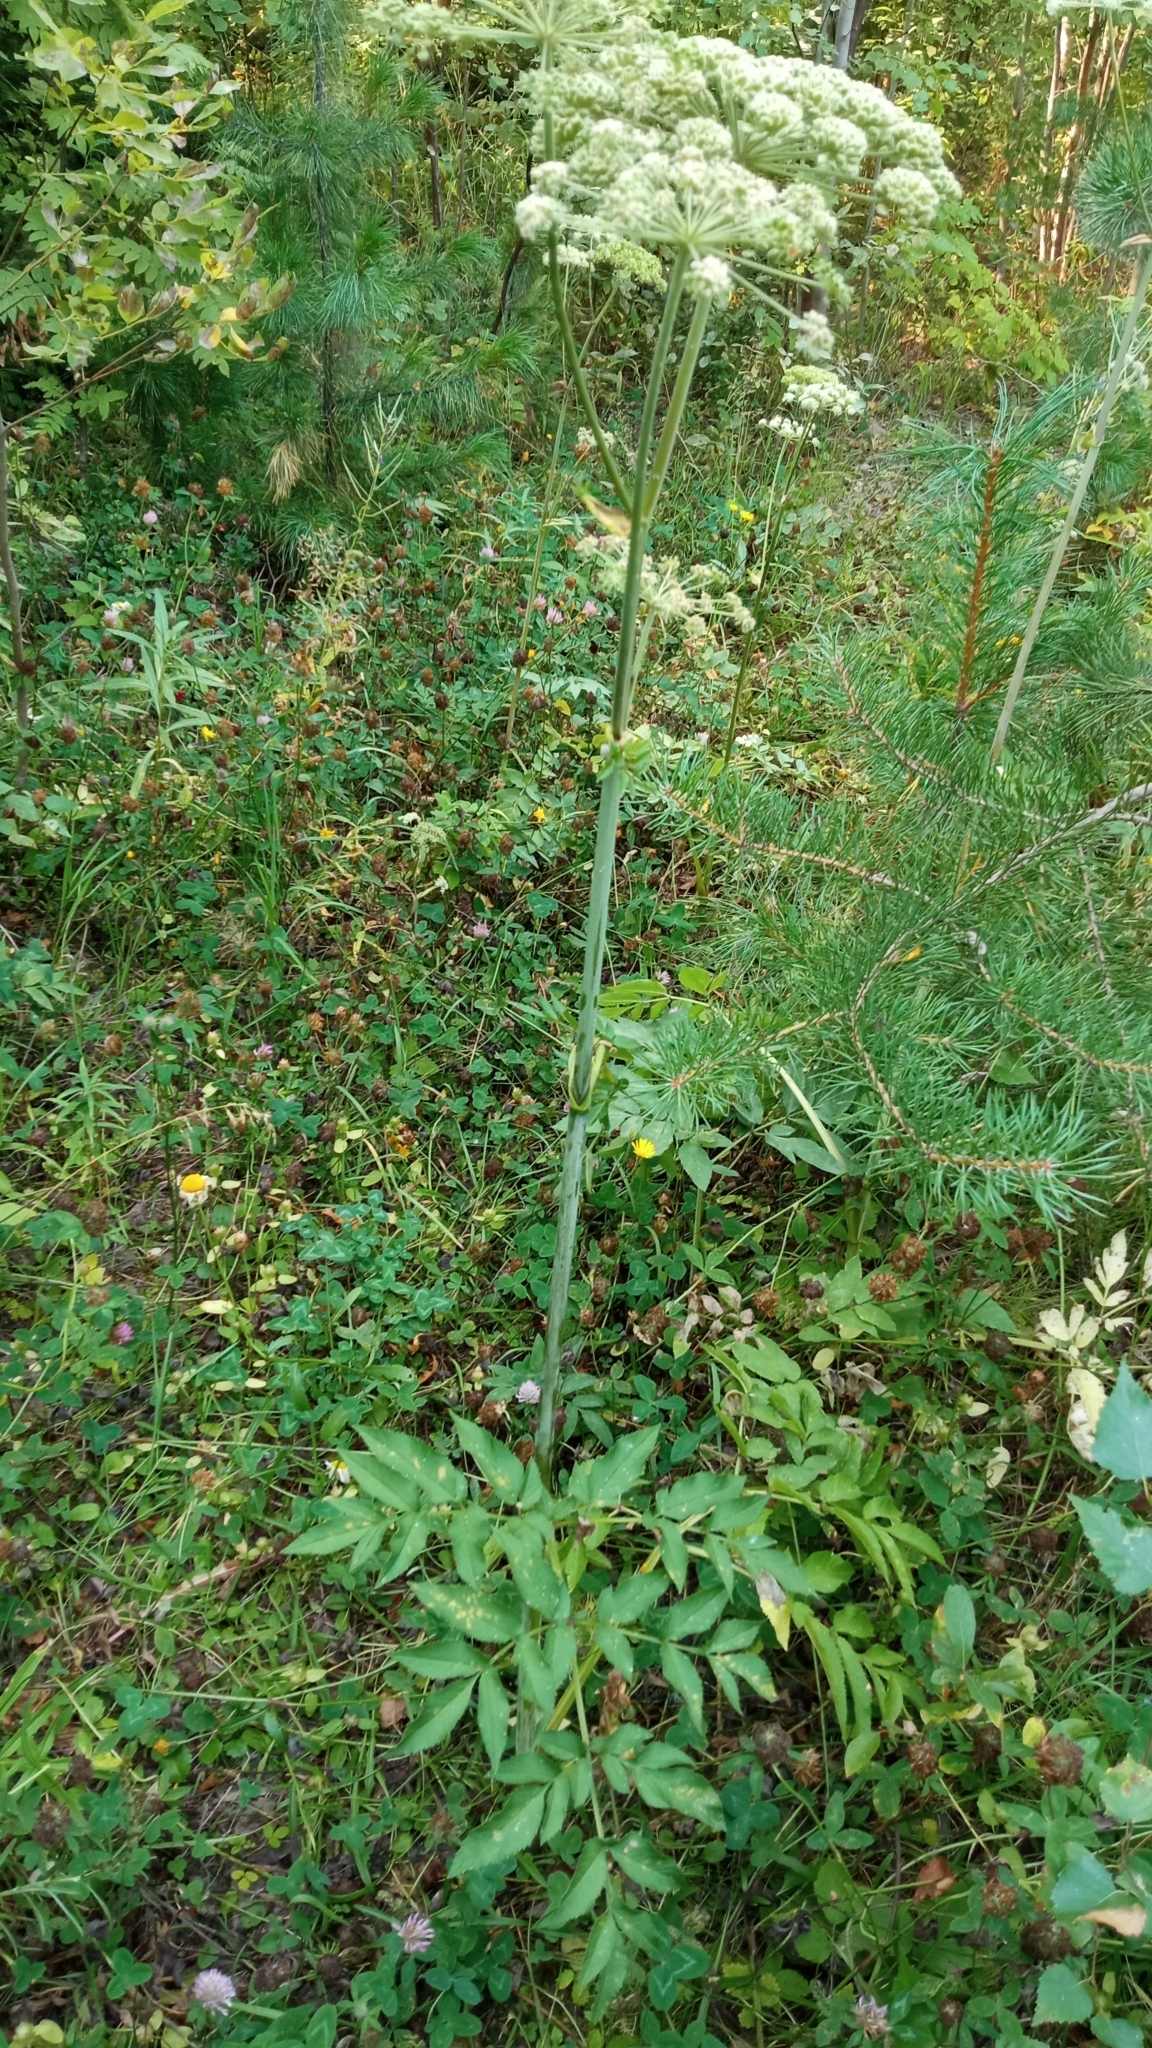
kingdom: Plantae
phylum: Tracheophyta
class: Magnoliopsida
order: Apiales
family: Apiaceae
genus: Angelica
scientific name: Angelica sylvestris
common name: Wild angelica
